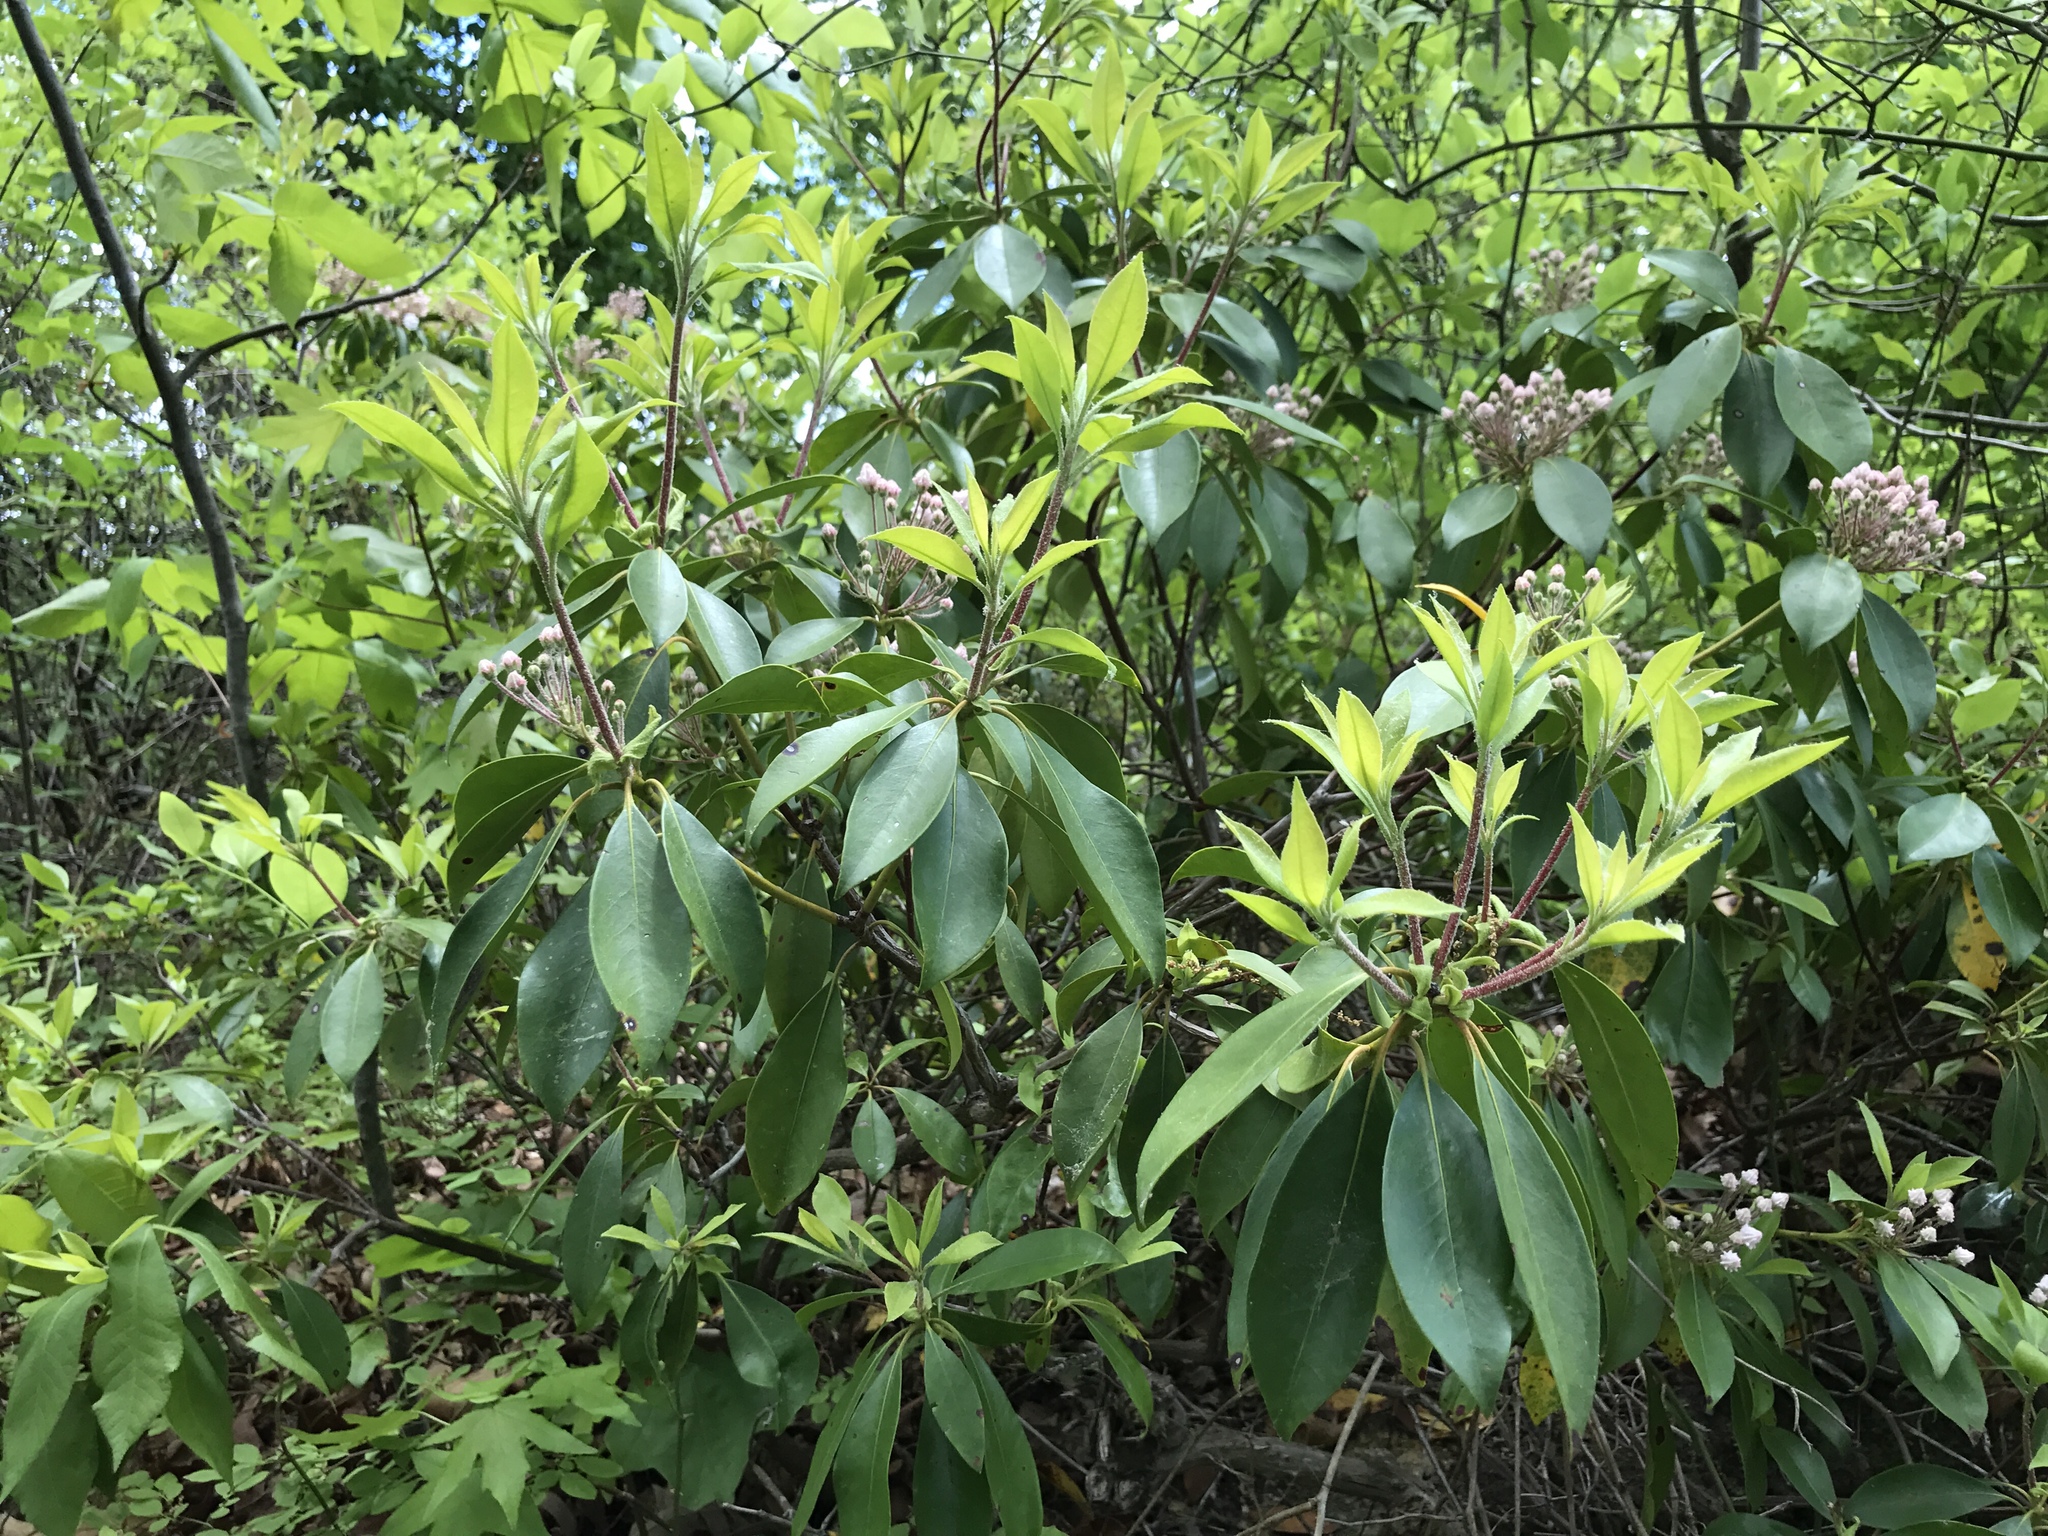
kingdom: Plantae
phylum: Tracheophyta
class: Magnoliopsida
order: Ericales
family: Ericaceae
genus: Kalmia
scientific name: Kalmia latifolia
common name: Mountain-laurel
